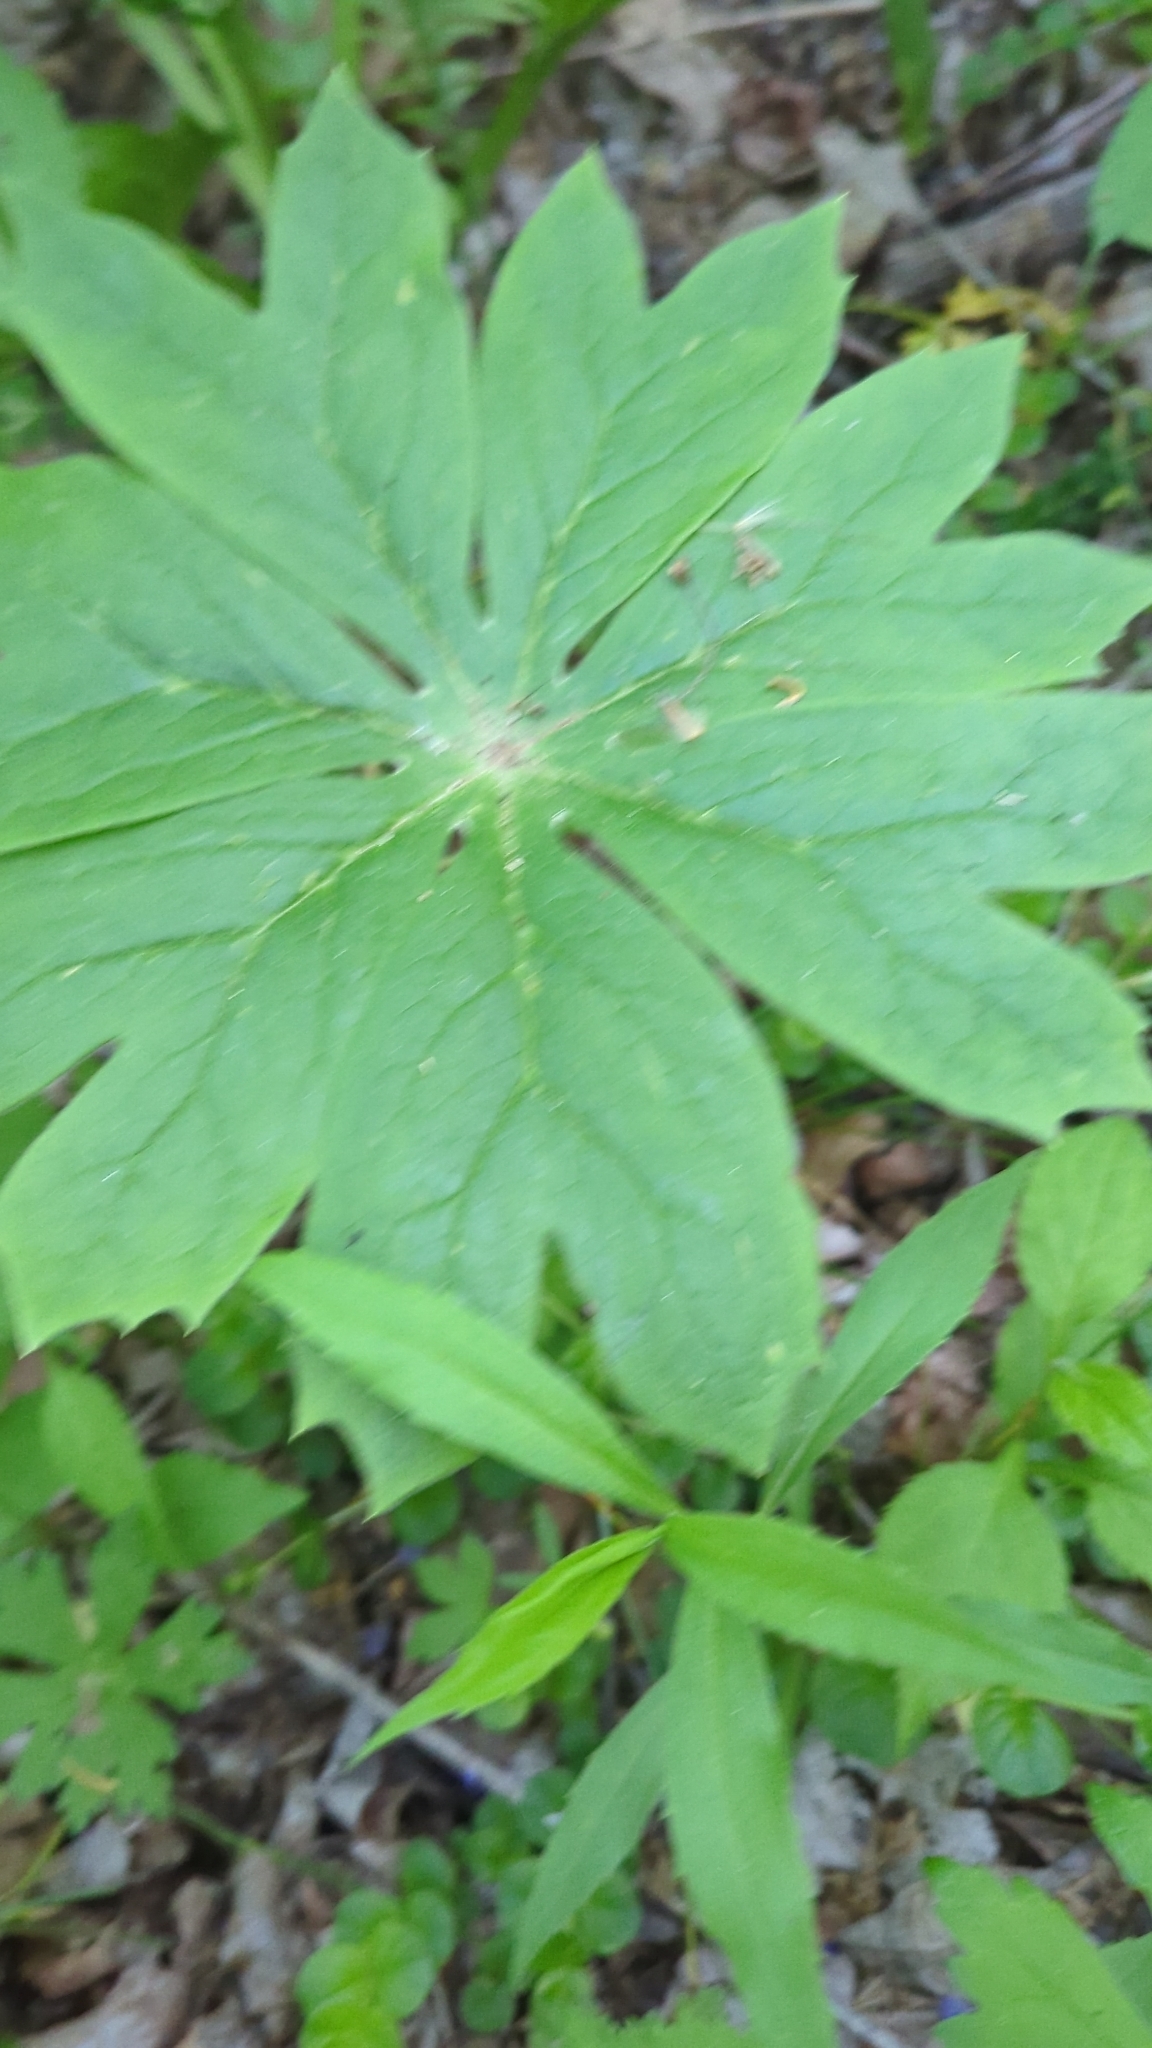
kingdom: Plantae
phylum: Tracheophyta
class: Magnoliopsida
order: Ranunculales
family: Berberidaceae
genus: Podophyllum
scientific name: Podophyllum peltatum
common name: Wild mandrake
